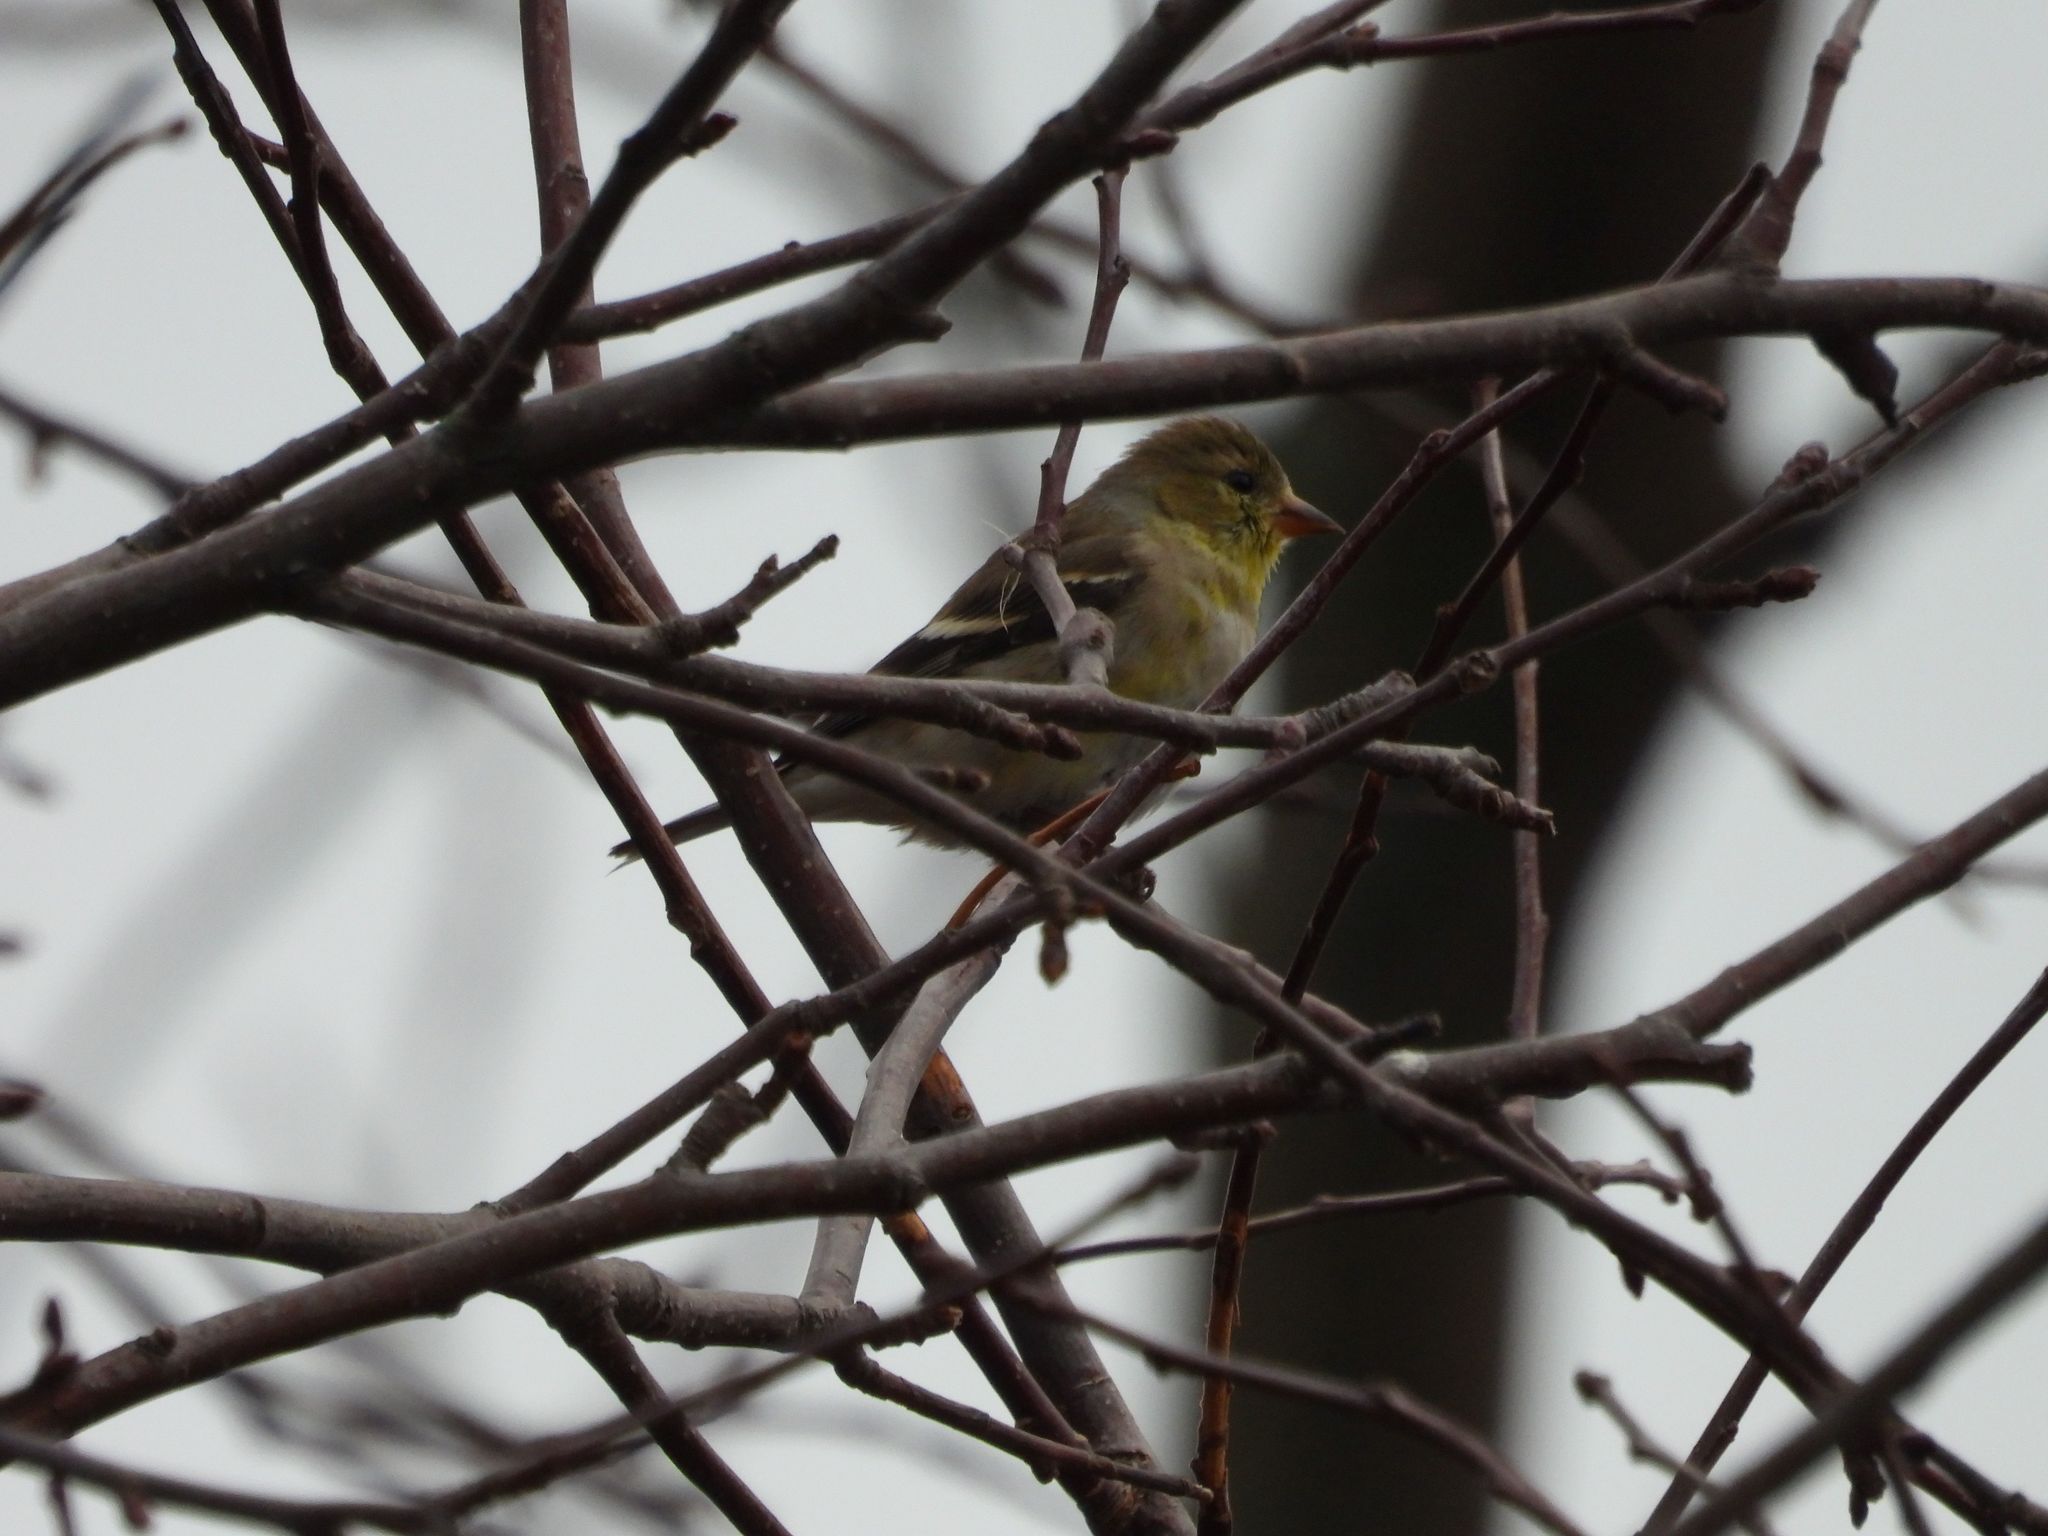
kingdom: Animalia
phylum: Chordata
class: Aves
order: Passeriformes
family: Fringillidae
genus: Spinus
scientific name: Spinus tristis
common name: American goldfinch
